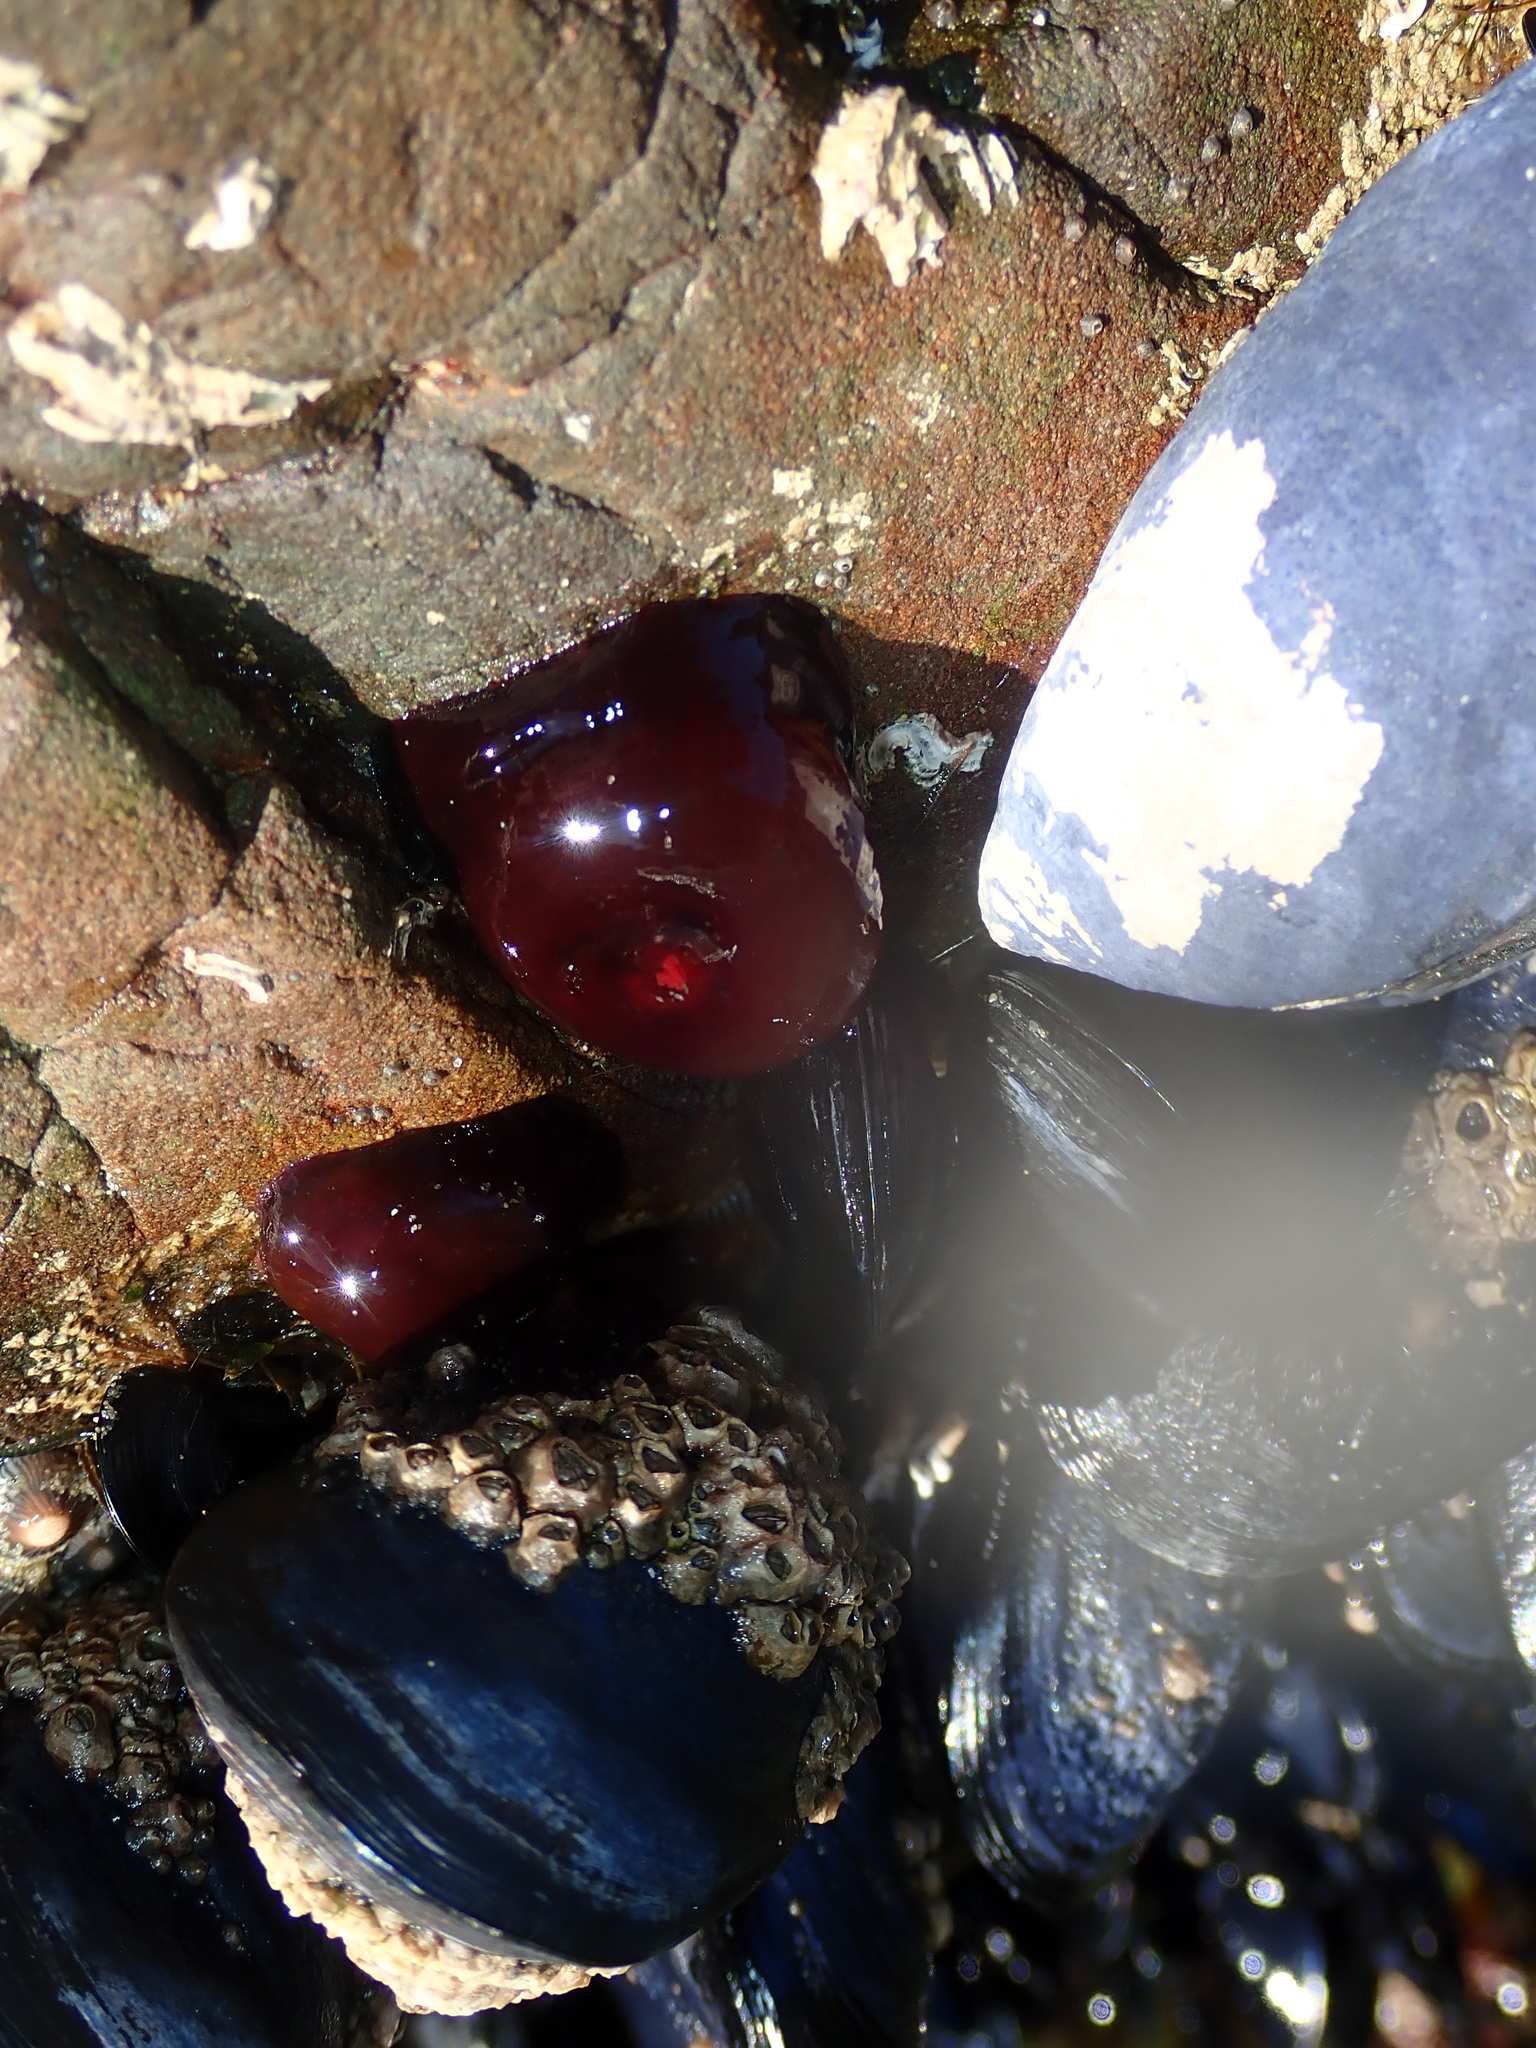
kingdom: Animalia
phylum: Cnidaria
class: Anthozoa
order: Actiniaria
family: Actiniidae
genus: Actinia
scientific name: Actinia tenebrosa
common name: Waratah anemone
